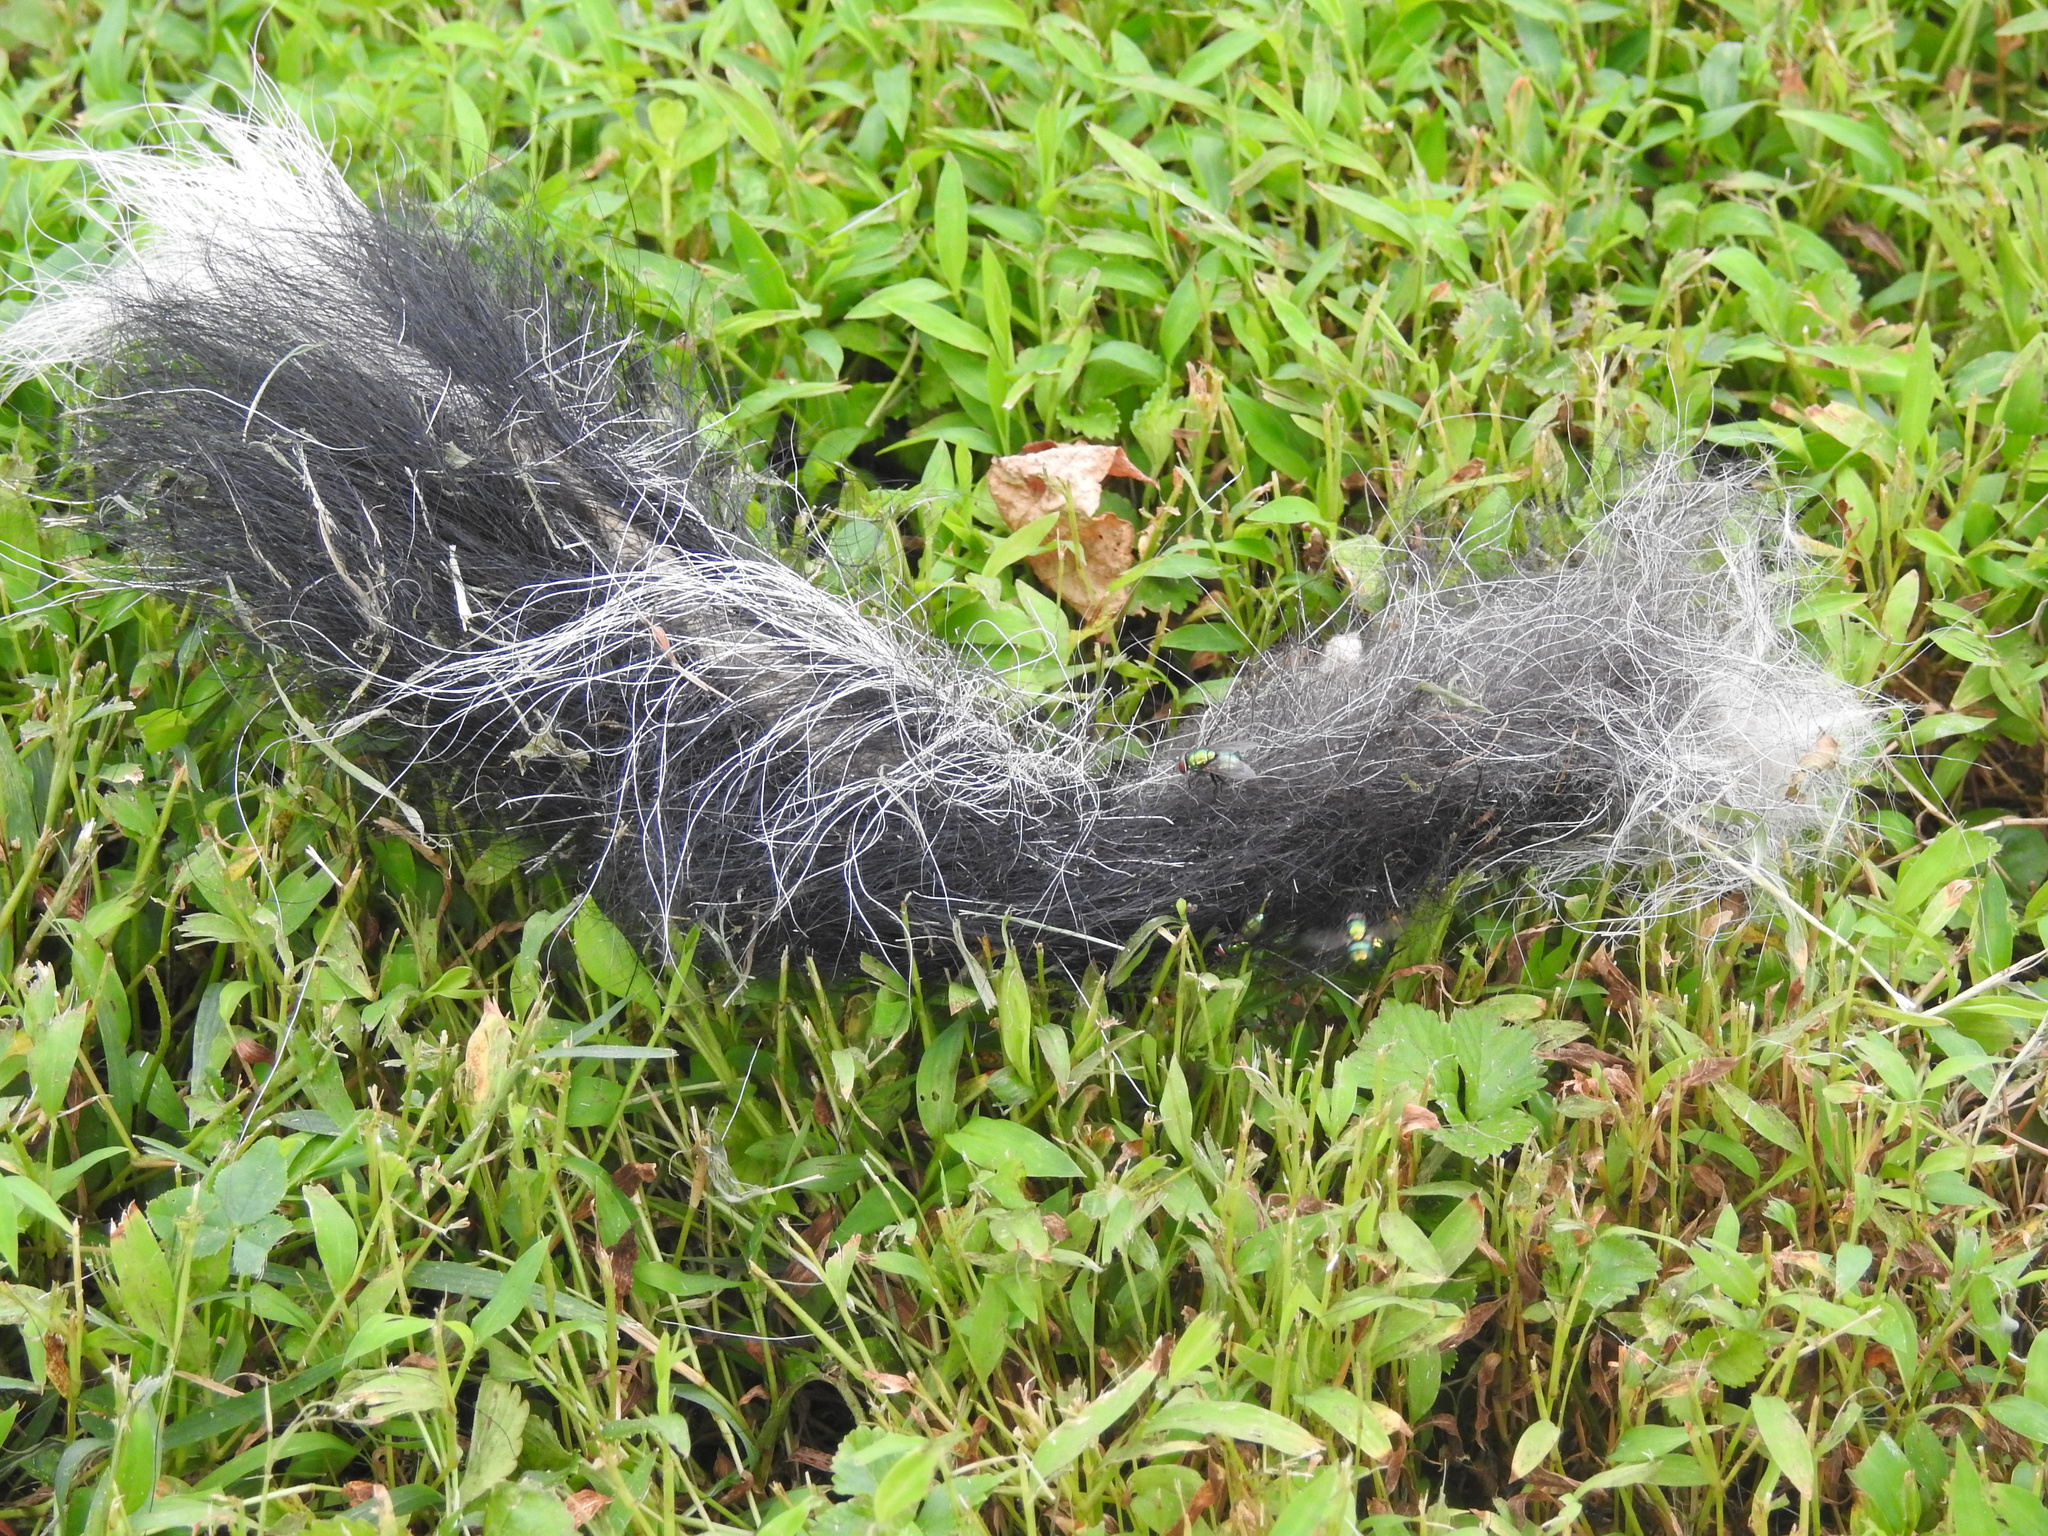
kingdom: Animalia
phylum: Chordata
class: Mammalia
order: Carnivora
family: Mephitidae
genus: Mephitis
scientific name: Mephitis mephitis
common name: Striped skunk
